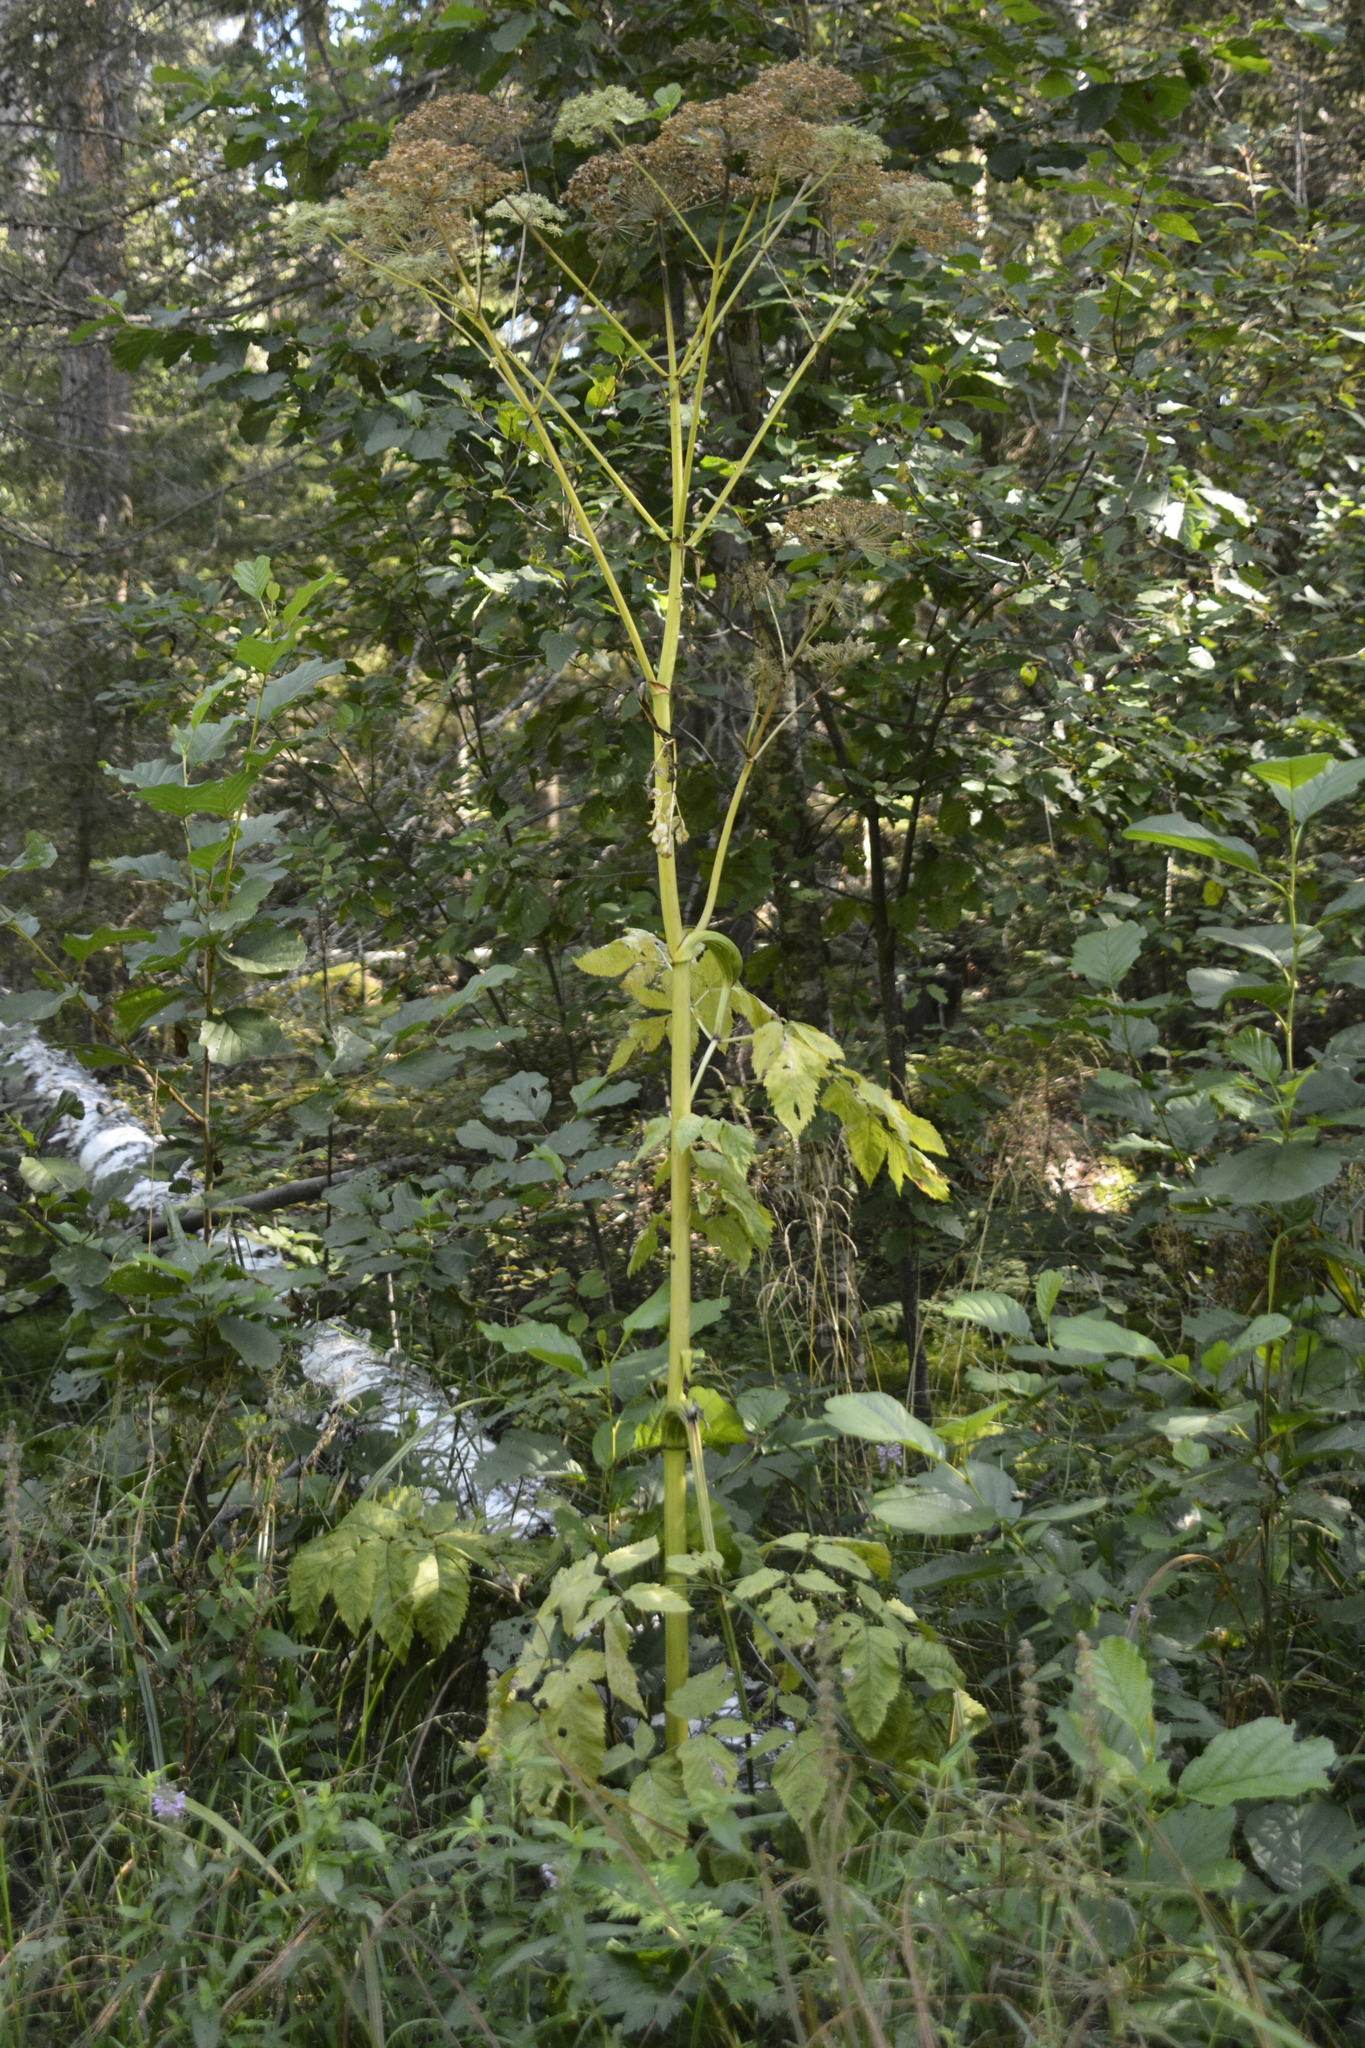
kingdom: Plantae
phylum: Tracheophyta
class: Magnoliopsida
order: Apiales
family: Apiaceae
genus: Angelica
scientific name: Angelica sylvestris
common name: Wild angelica
